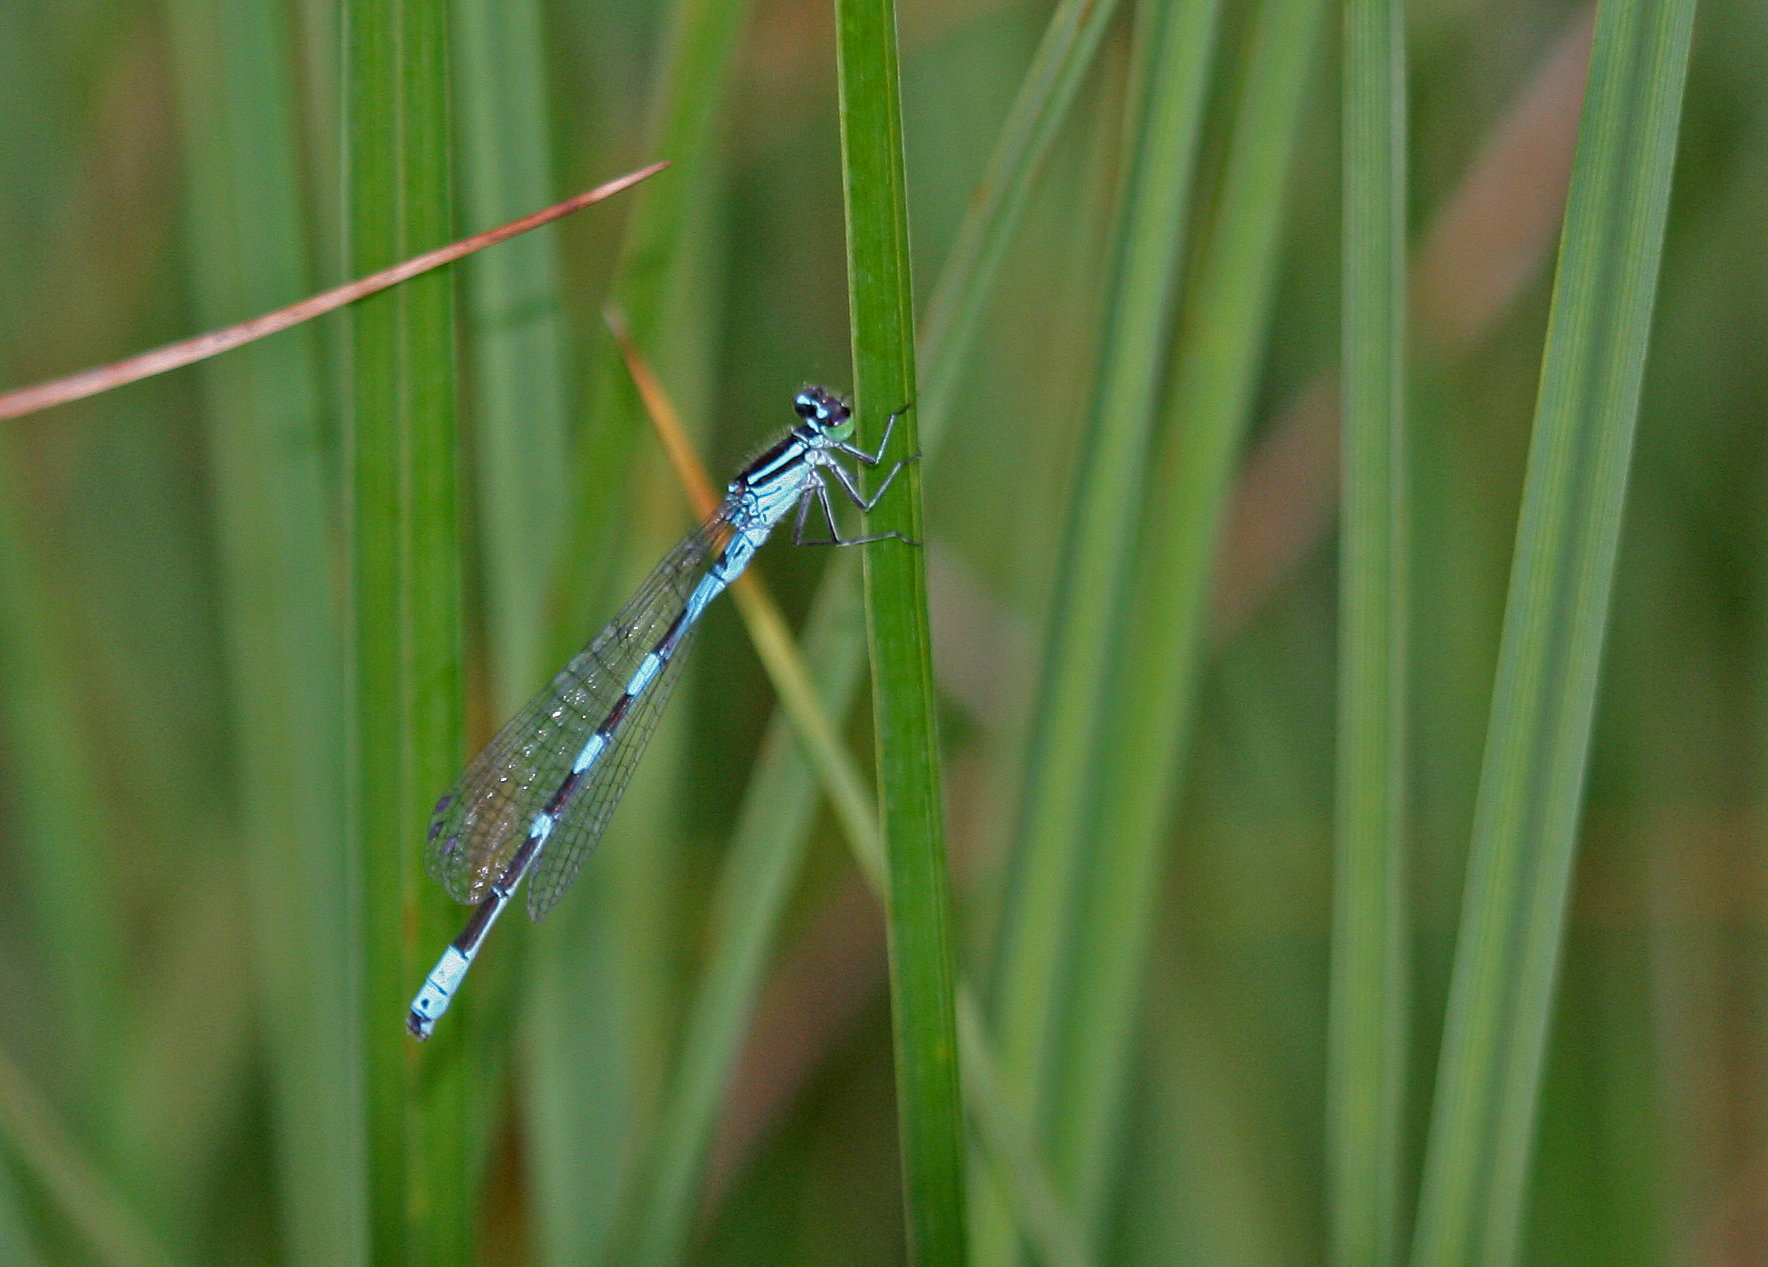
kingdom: Animalia
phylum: Arthropoda
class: Insecta
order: Odonata
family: Coenagrionidae
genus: Coenagrion
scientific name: Coenagrion hastulatum
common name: Spearhead bluet
